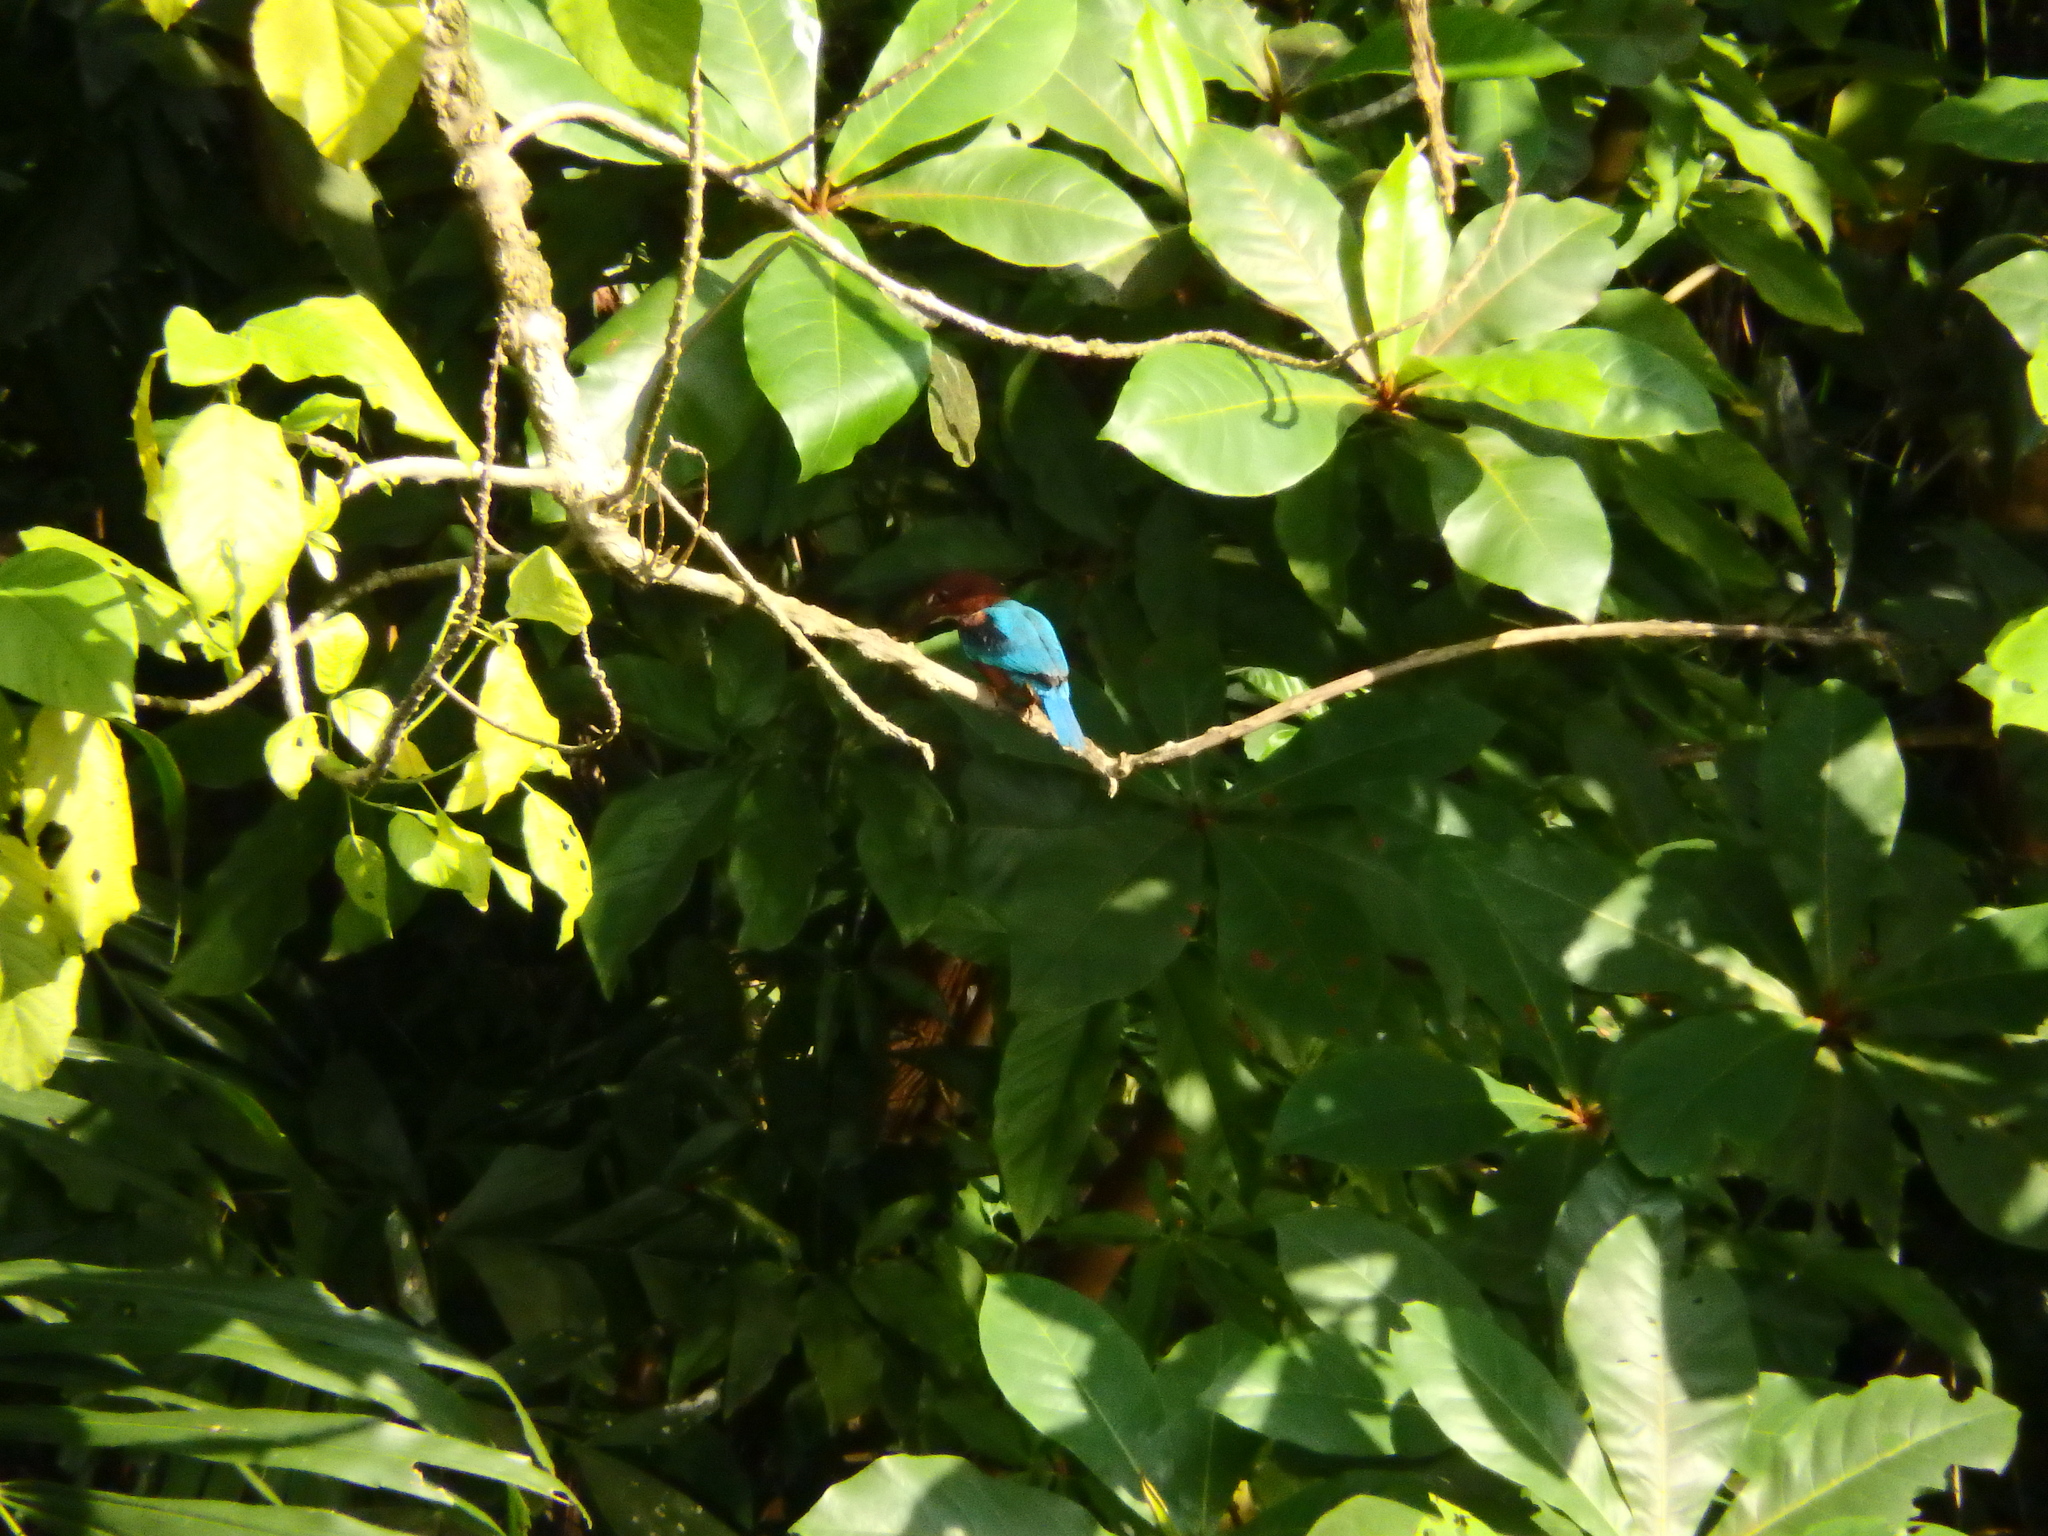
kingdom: Animalia
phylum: Chordata
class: Aves
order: Coraciiformes
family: Alcedinidae
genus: Halcyon
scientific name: Halcyon smyrnensis
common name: White-throated kingfisher
